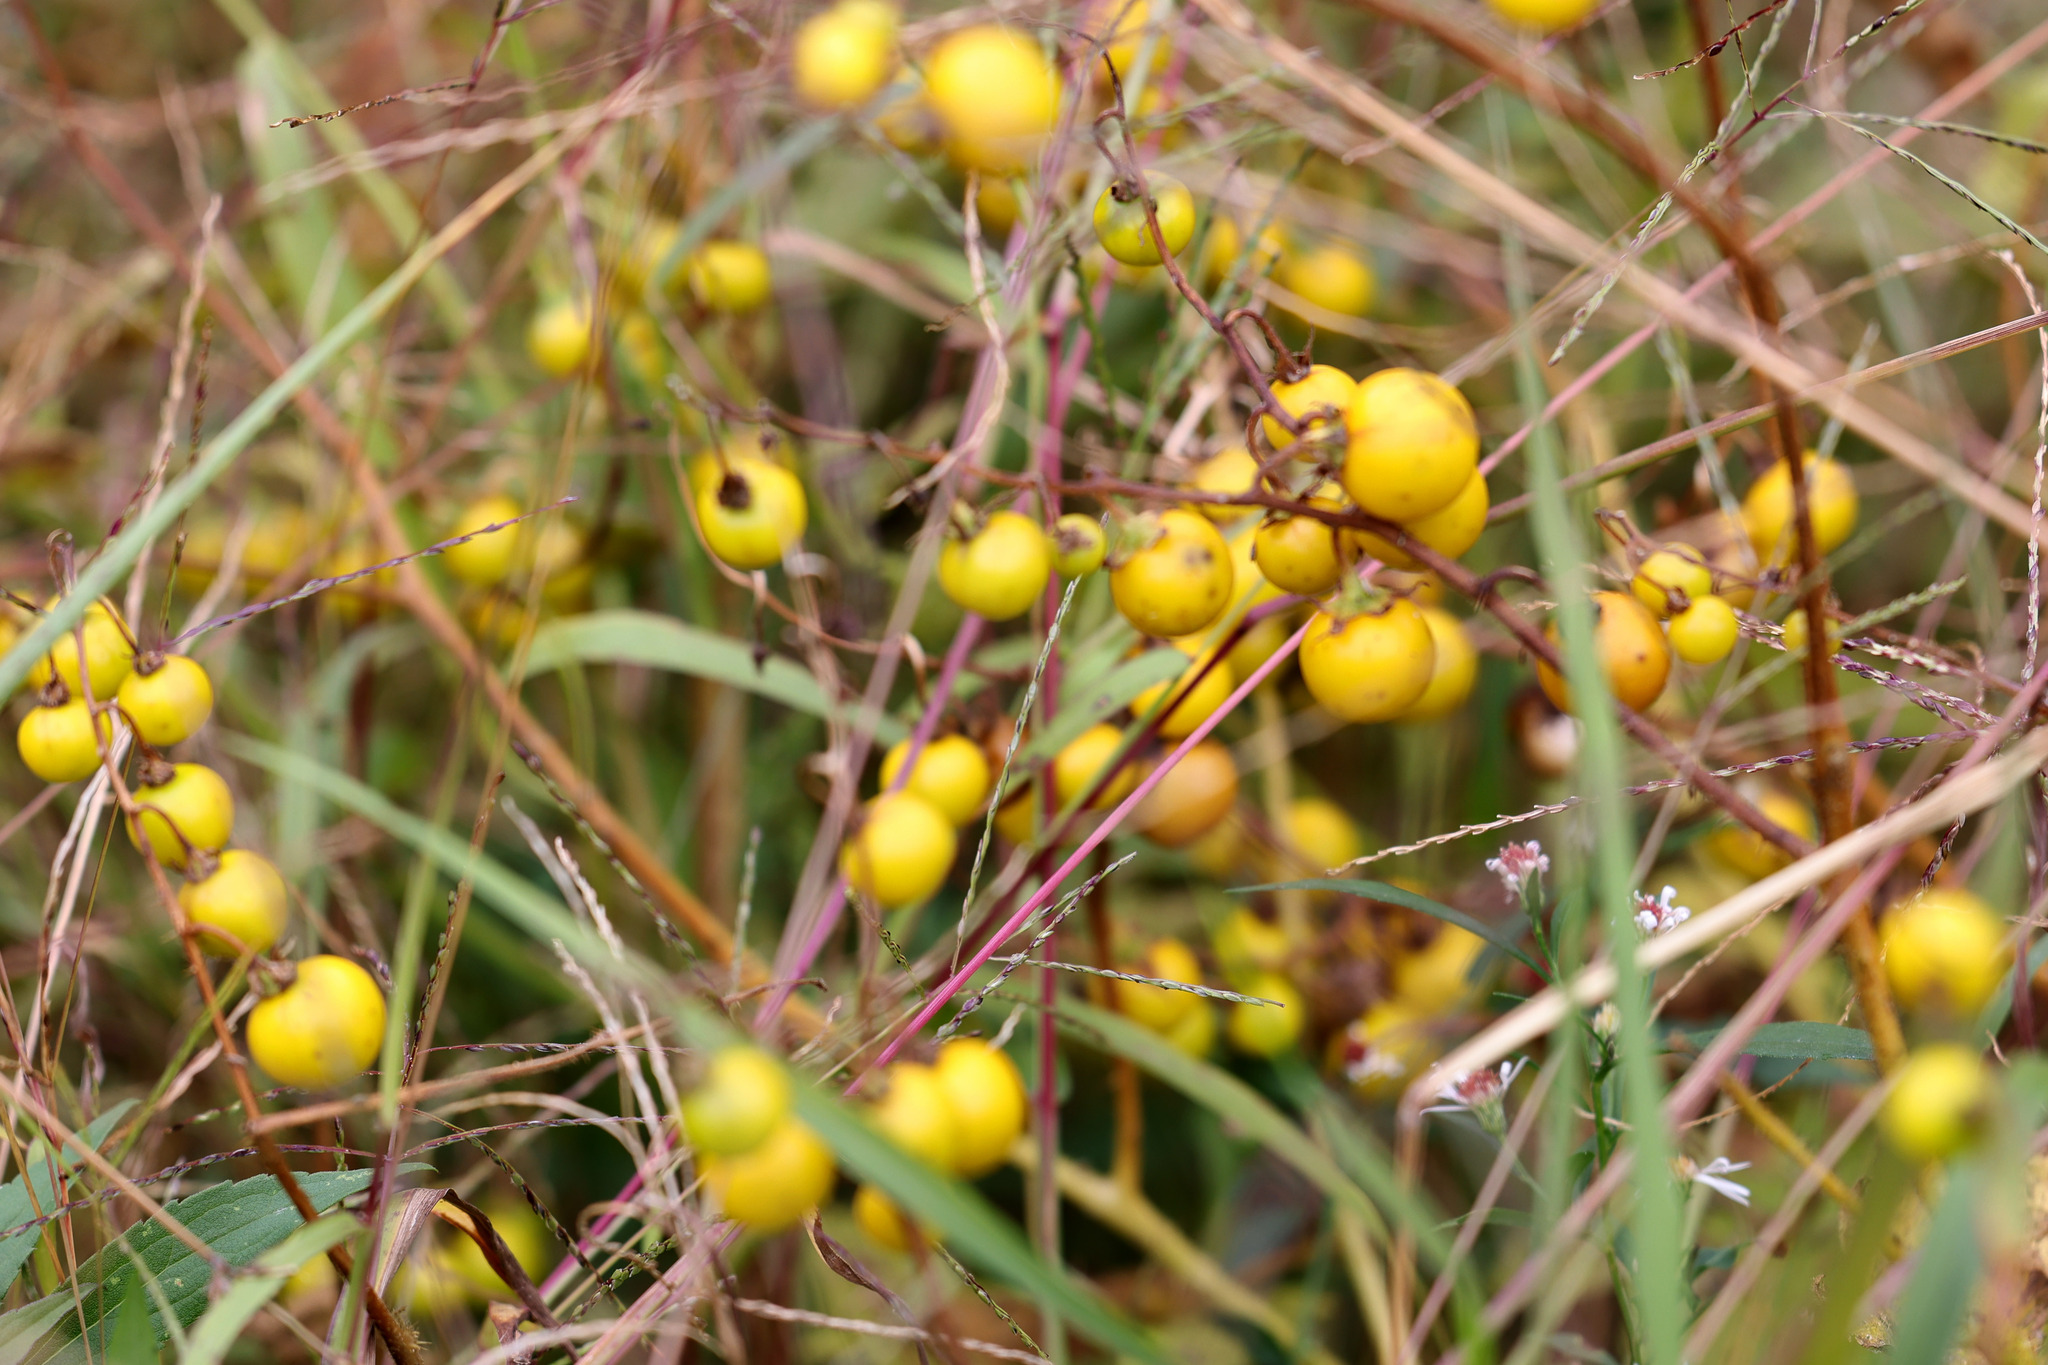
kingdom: Plantae
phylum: Tracheophyta
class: Magnoliopsida
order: Solanales
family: Solanaceae
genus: Solanum
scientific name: Solanum carolinense
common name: Horse-nettle
